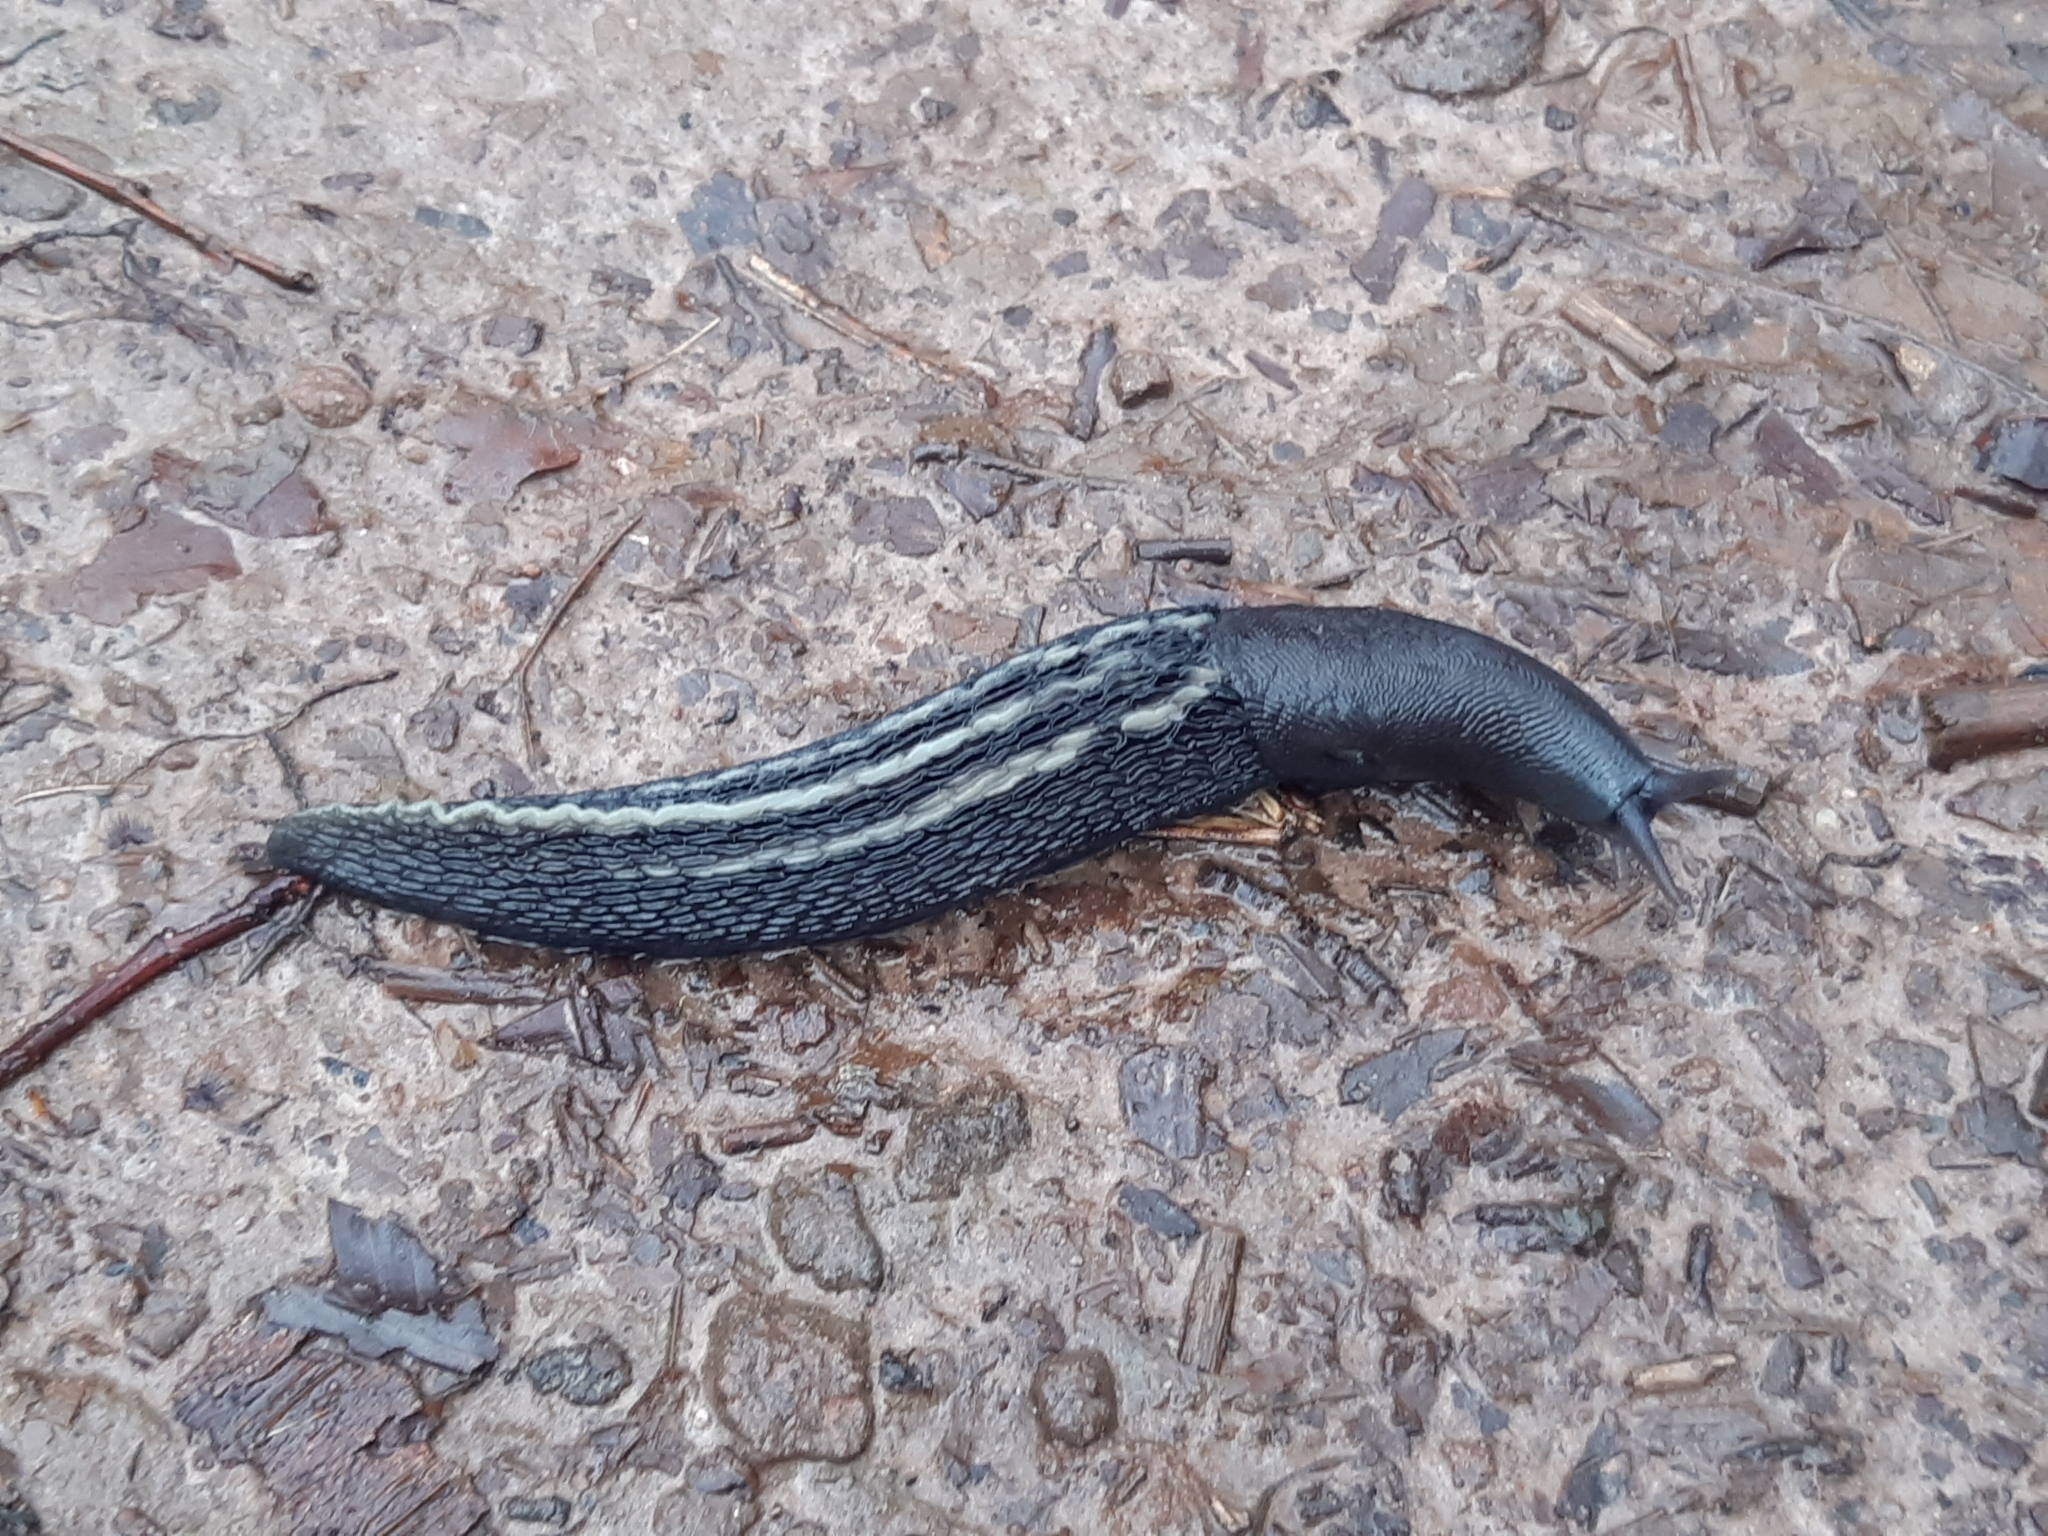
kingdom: Animalia
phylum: Mollusca
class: Gastropoda
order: Stylommatophora
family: Limacidae
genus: Limax
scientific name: Limax cinereoniger
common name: Ash-black slug
